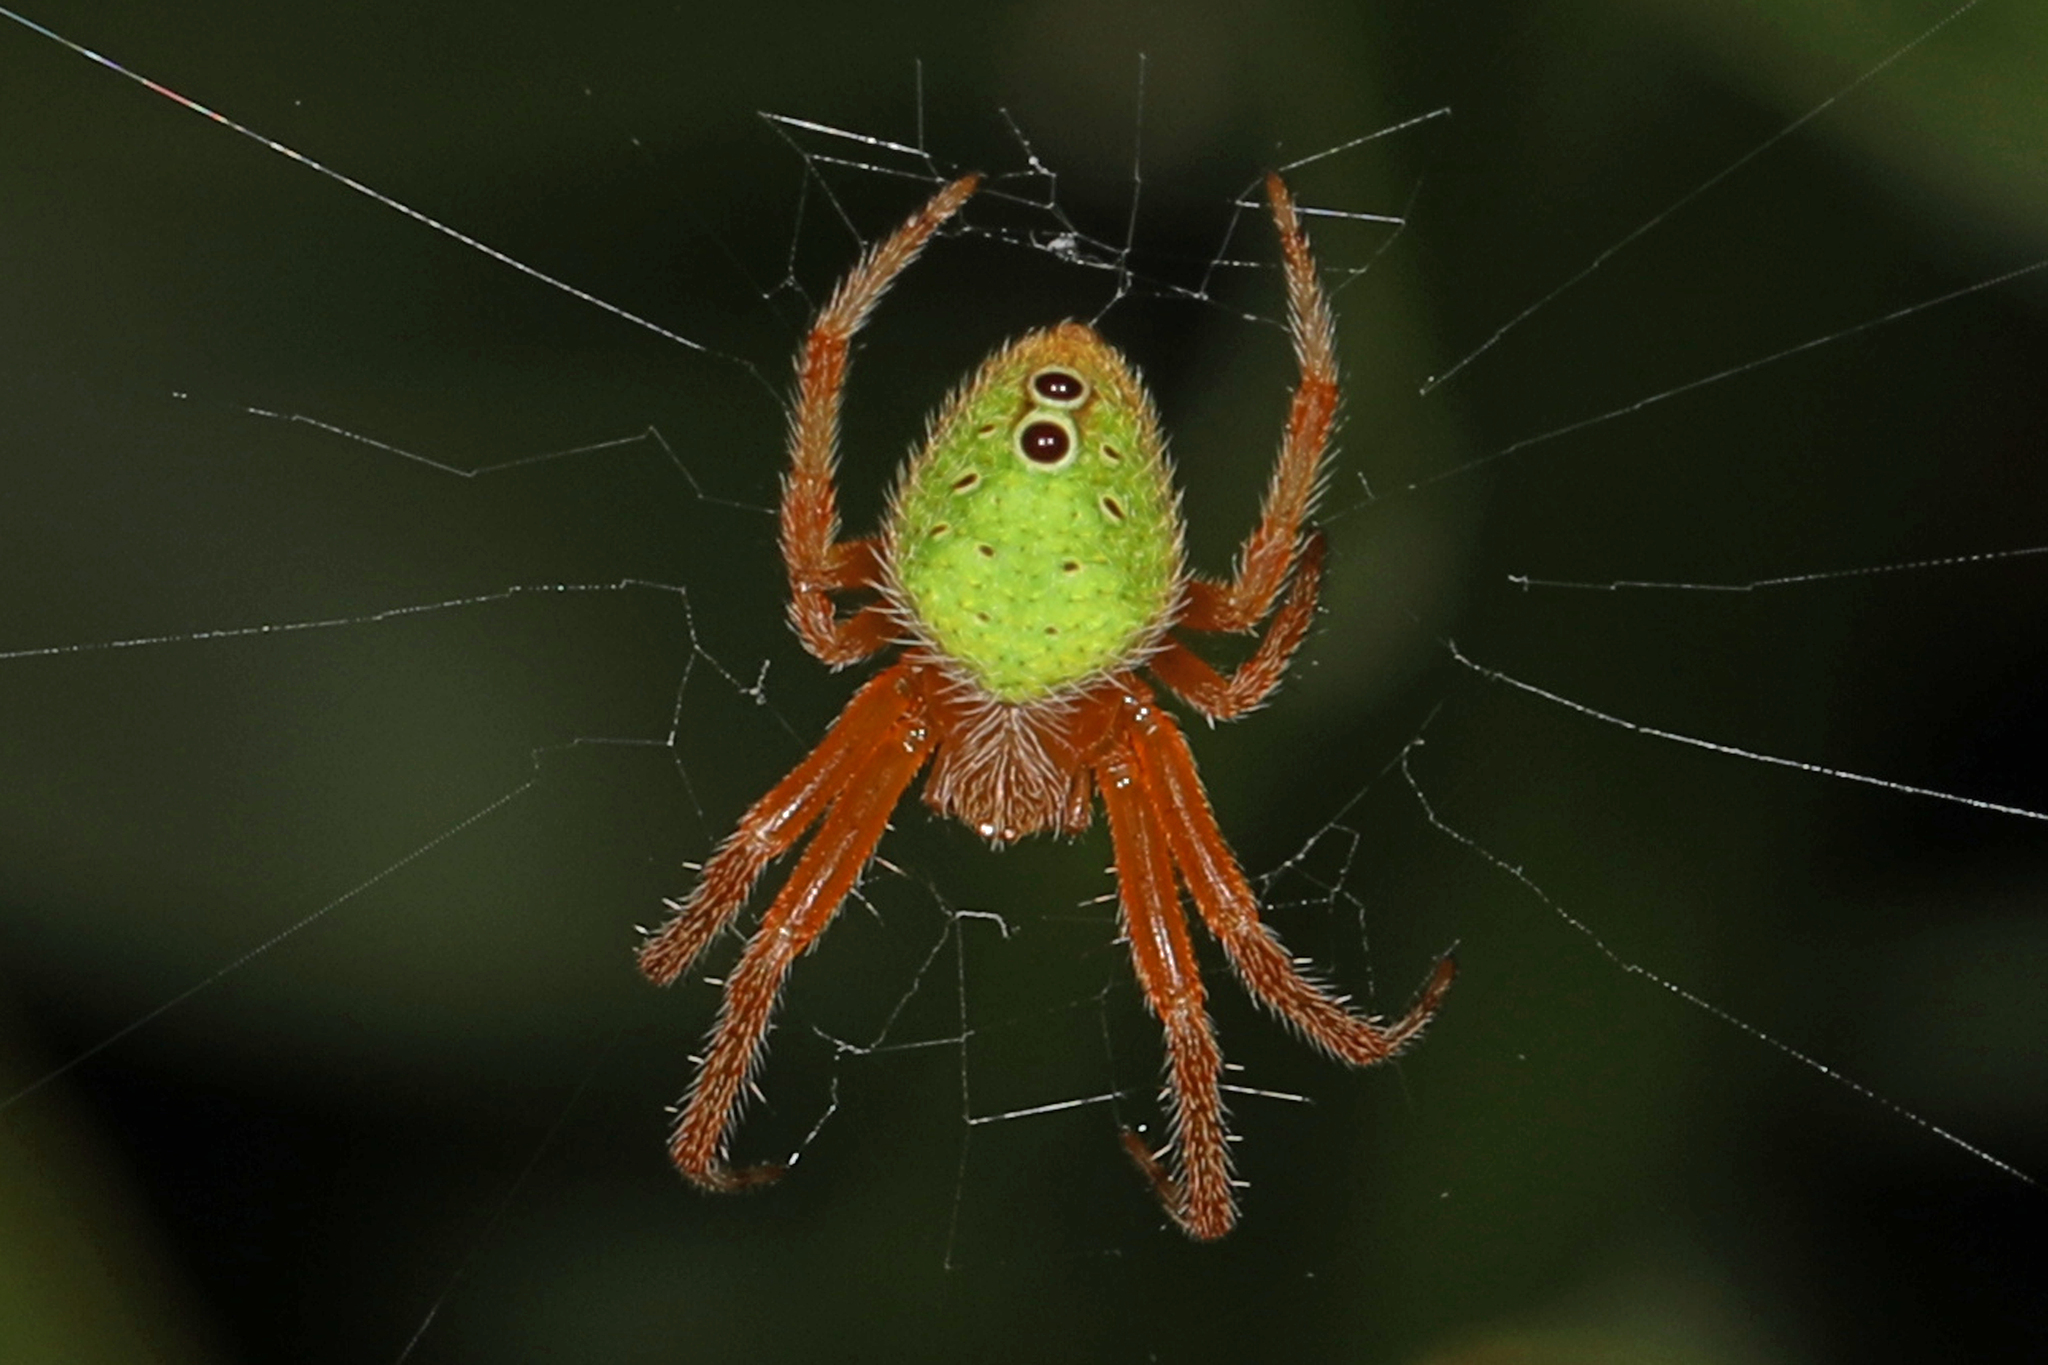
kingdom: Animalia
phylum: Arthropoda
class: Arachnida
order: Araneae
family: Araneidae
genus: Eriophora
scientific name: Eriophora ravilla
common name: Orb weavers
